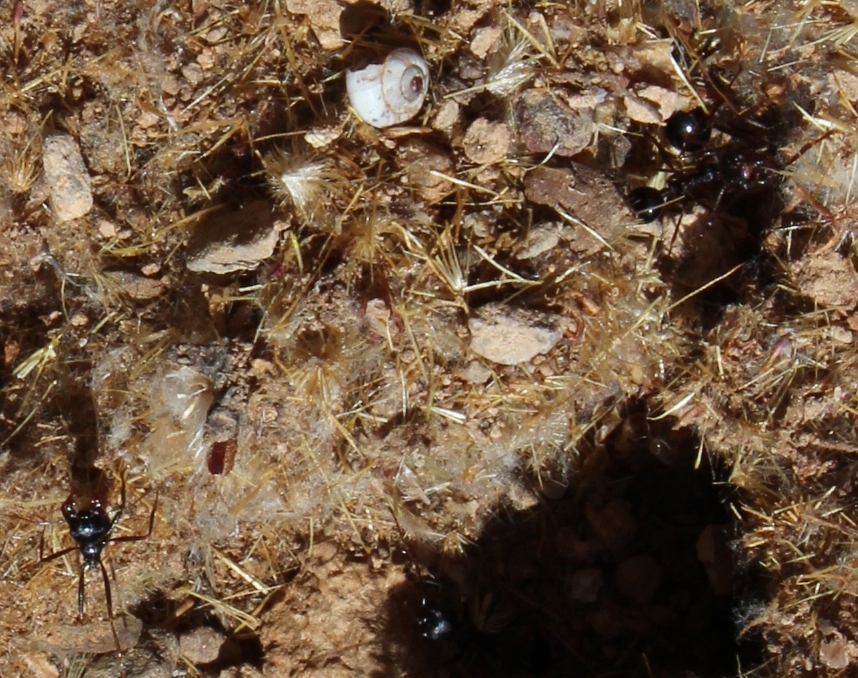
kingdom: Animalia
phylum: Arthropoda
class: Insecta
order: Hymenoptera
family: Formicidae
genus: Messor
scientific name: Messor capensis
